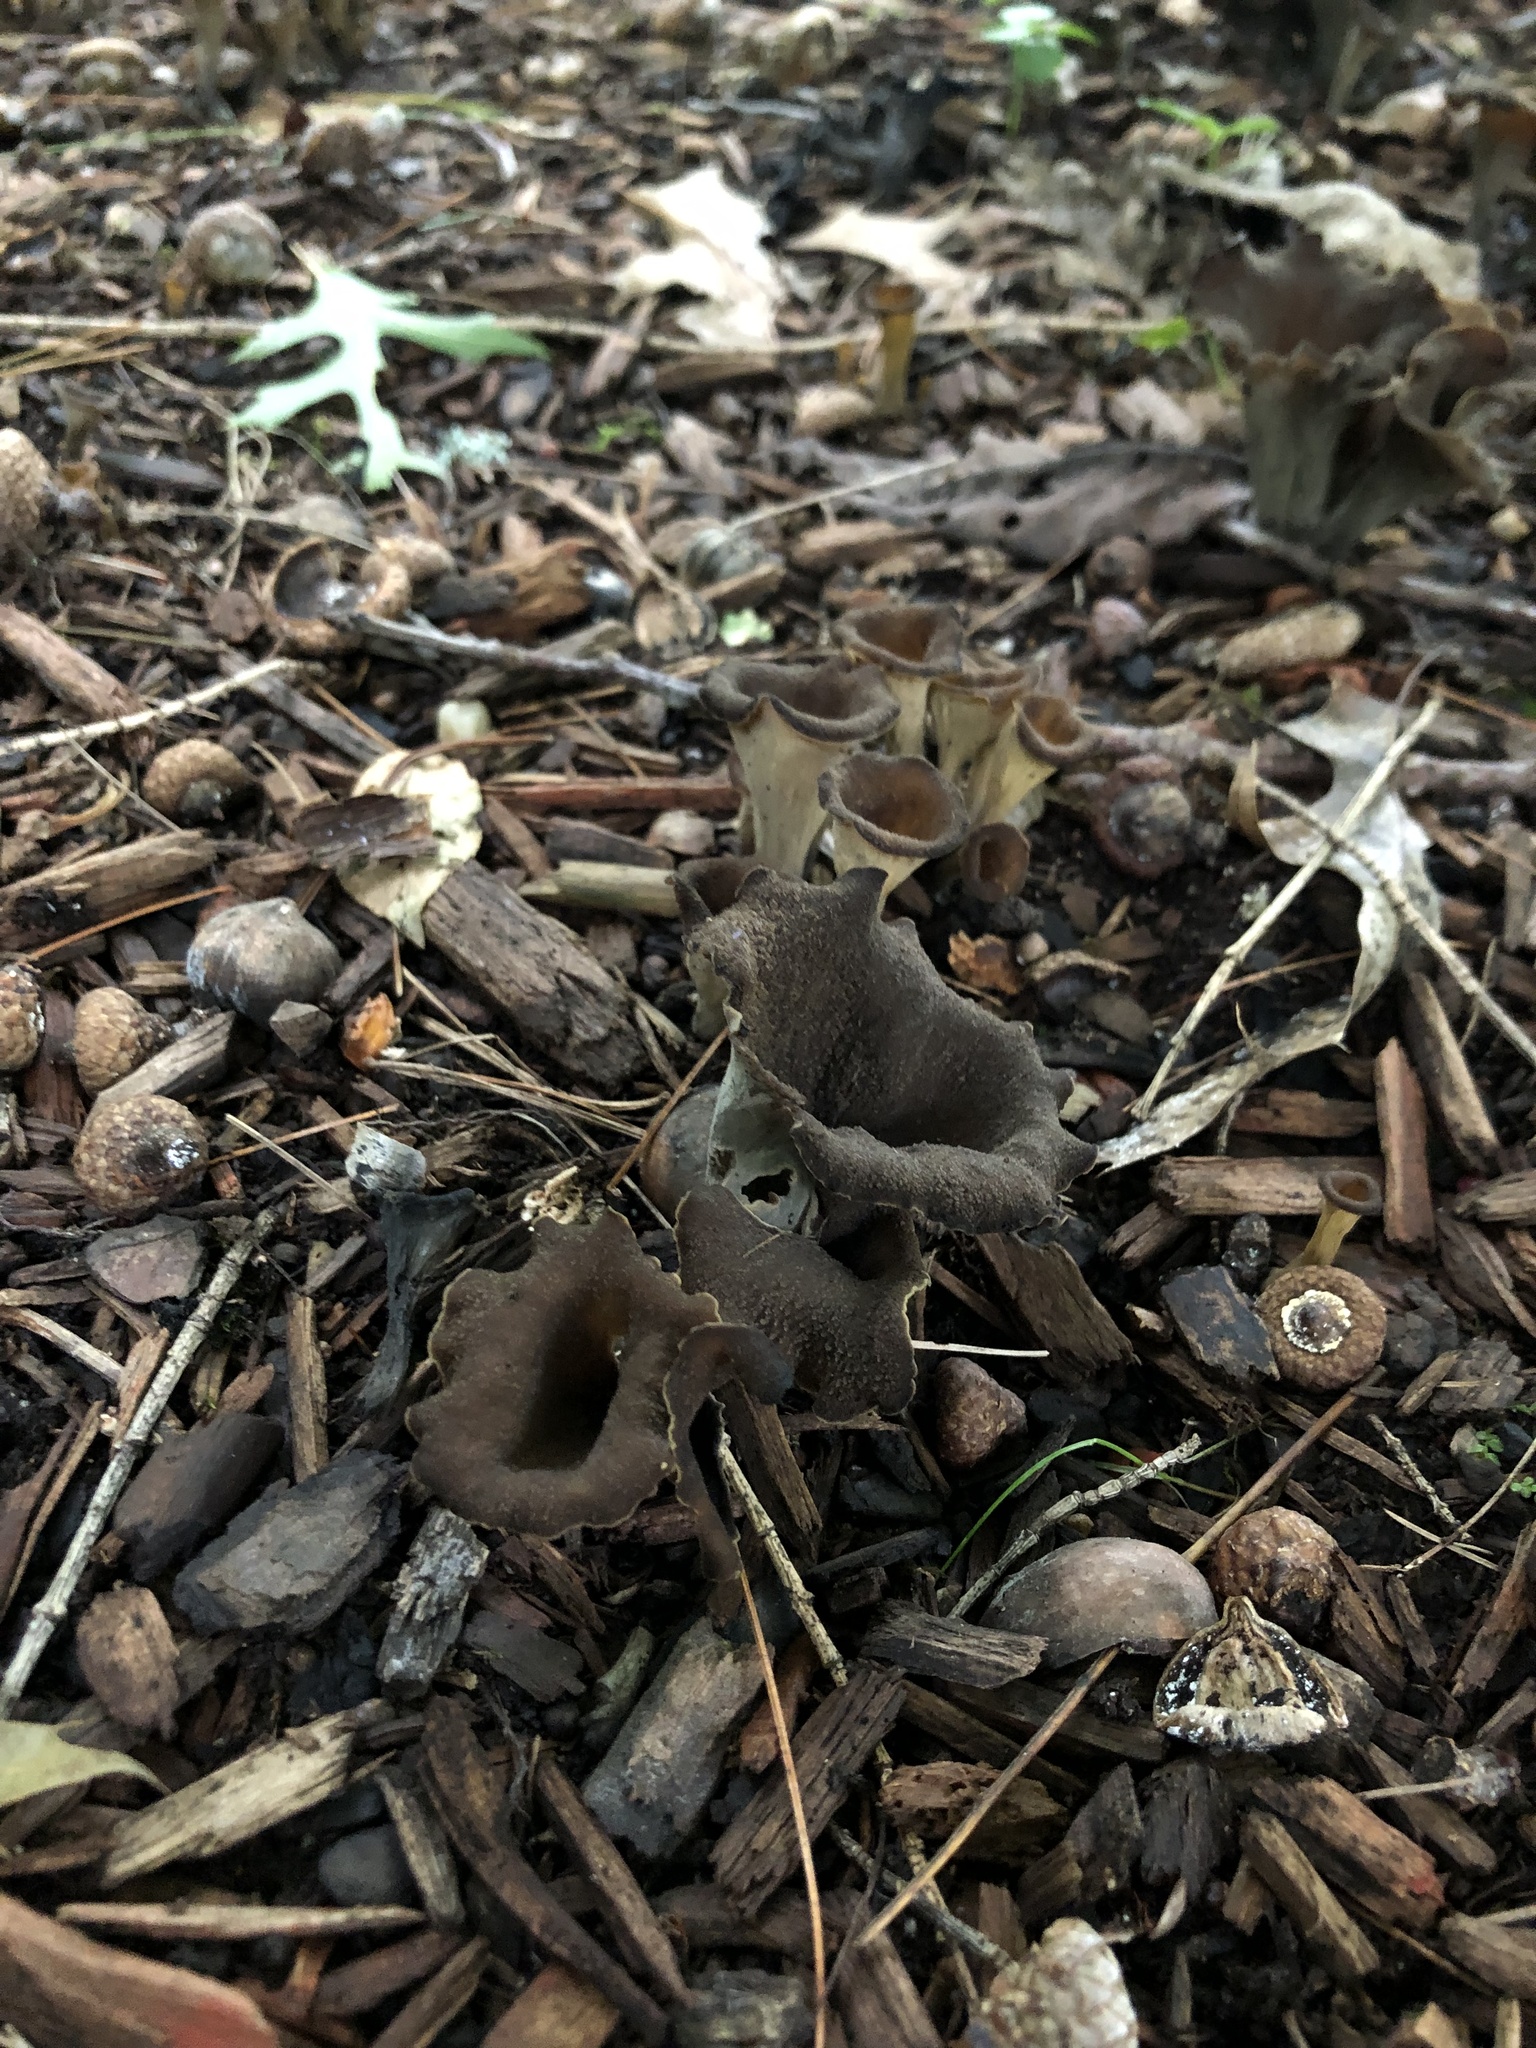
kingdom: Fungi
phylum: Basidiomycota
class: Agaricomycetes
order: Cantharellales
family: Hydnaceae
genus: Craterellus
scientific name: Craterellus cornucopioides
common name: Horn of plenty
